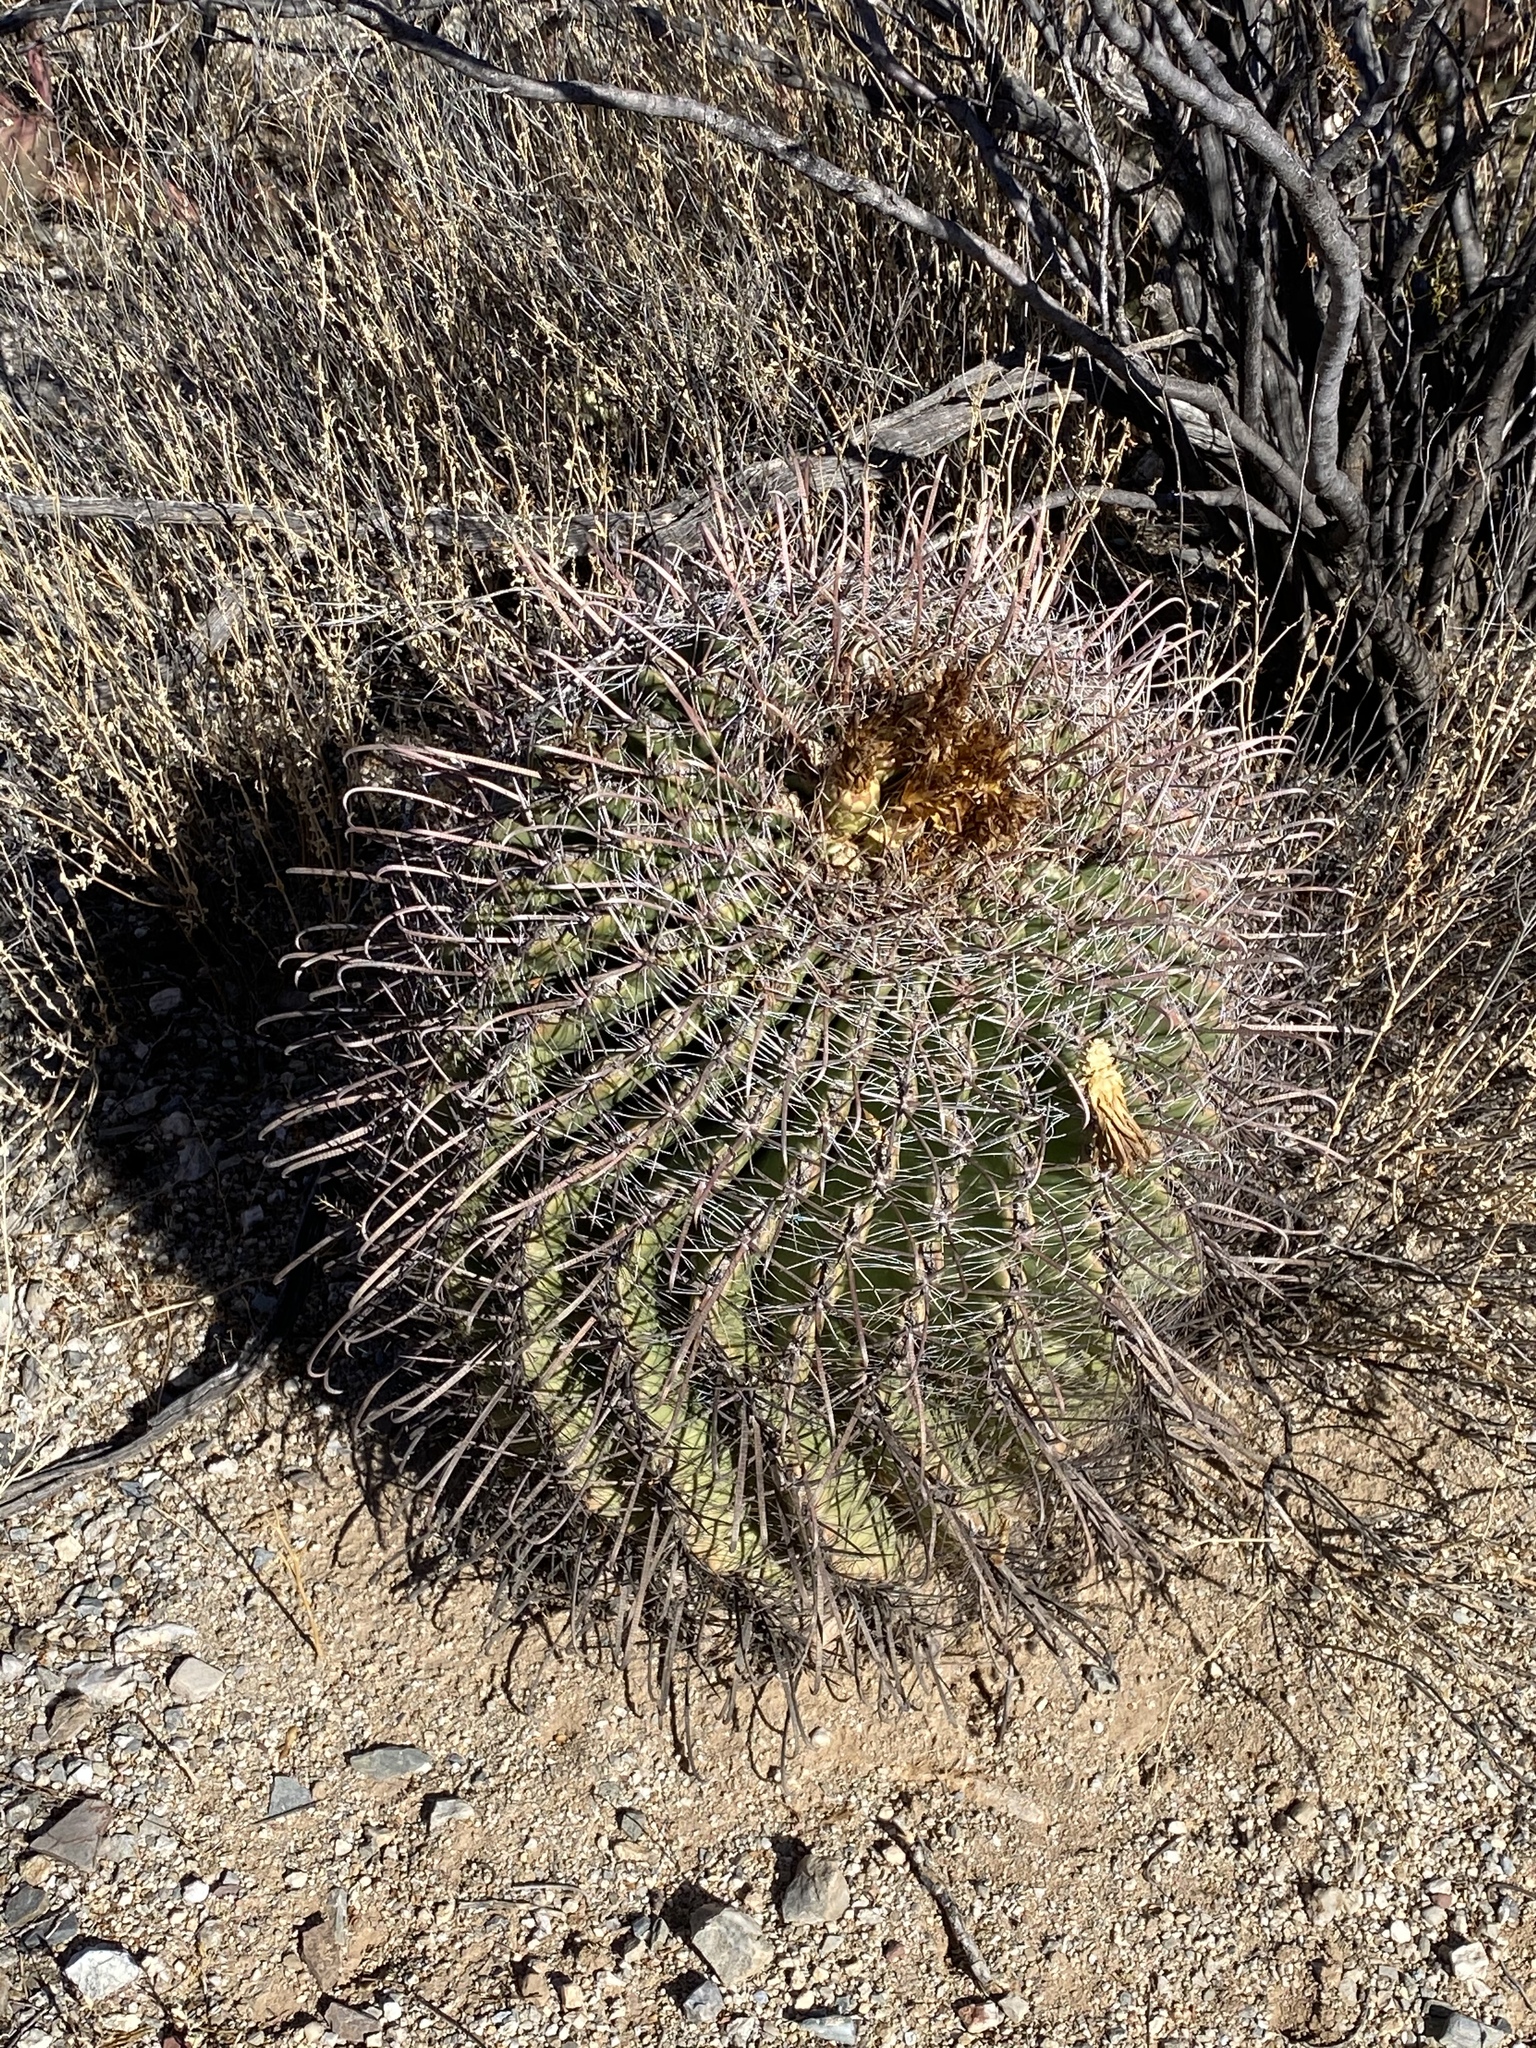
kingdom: Plantae
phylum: Tracheophyta
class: Magnoliopsida
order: Caryophyllales
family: Cactaceae
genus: Ferocactus
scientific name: Ferocactus wislizeni
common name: Candy barrel cactus
